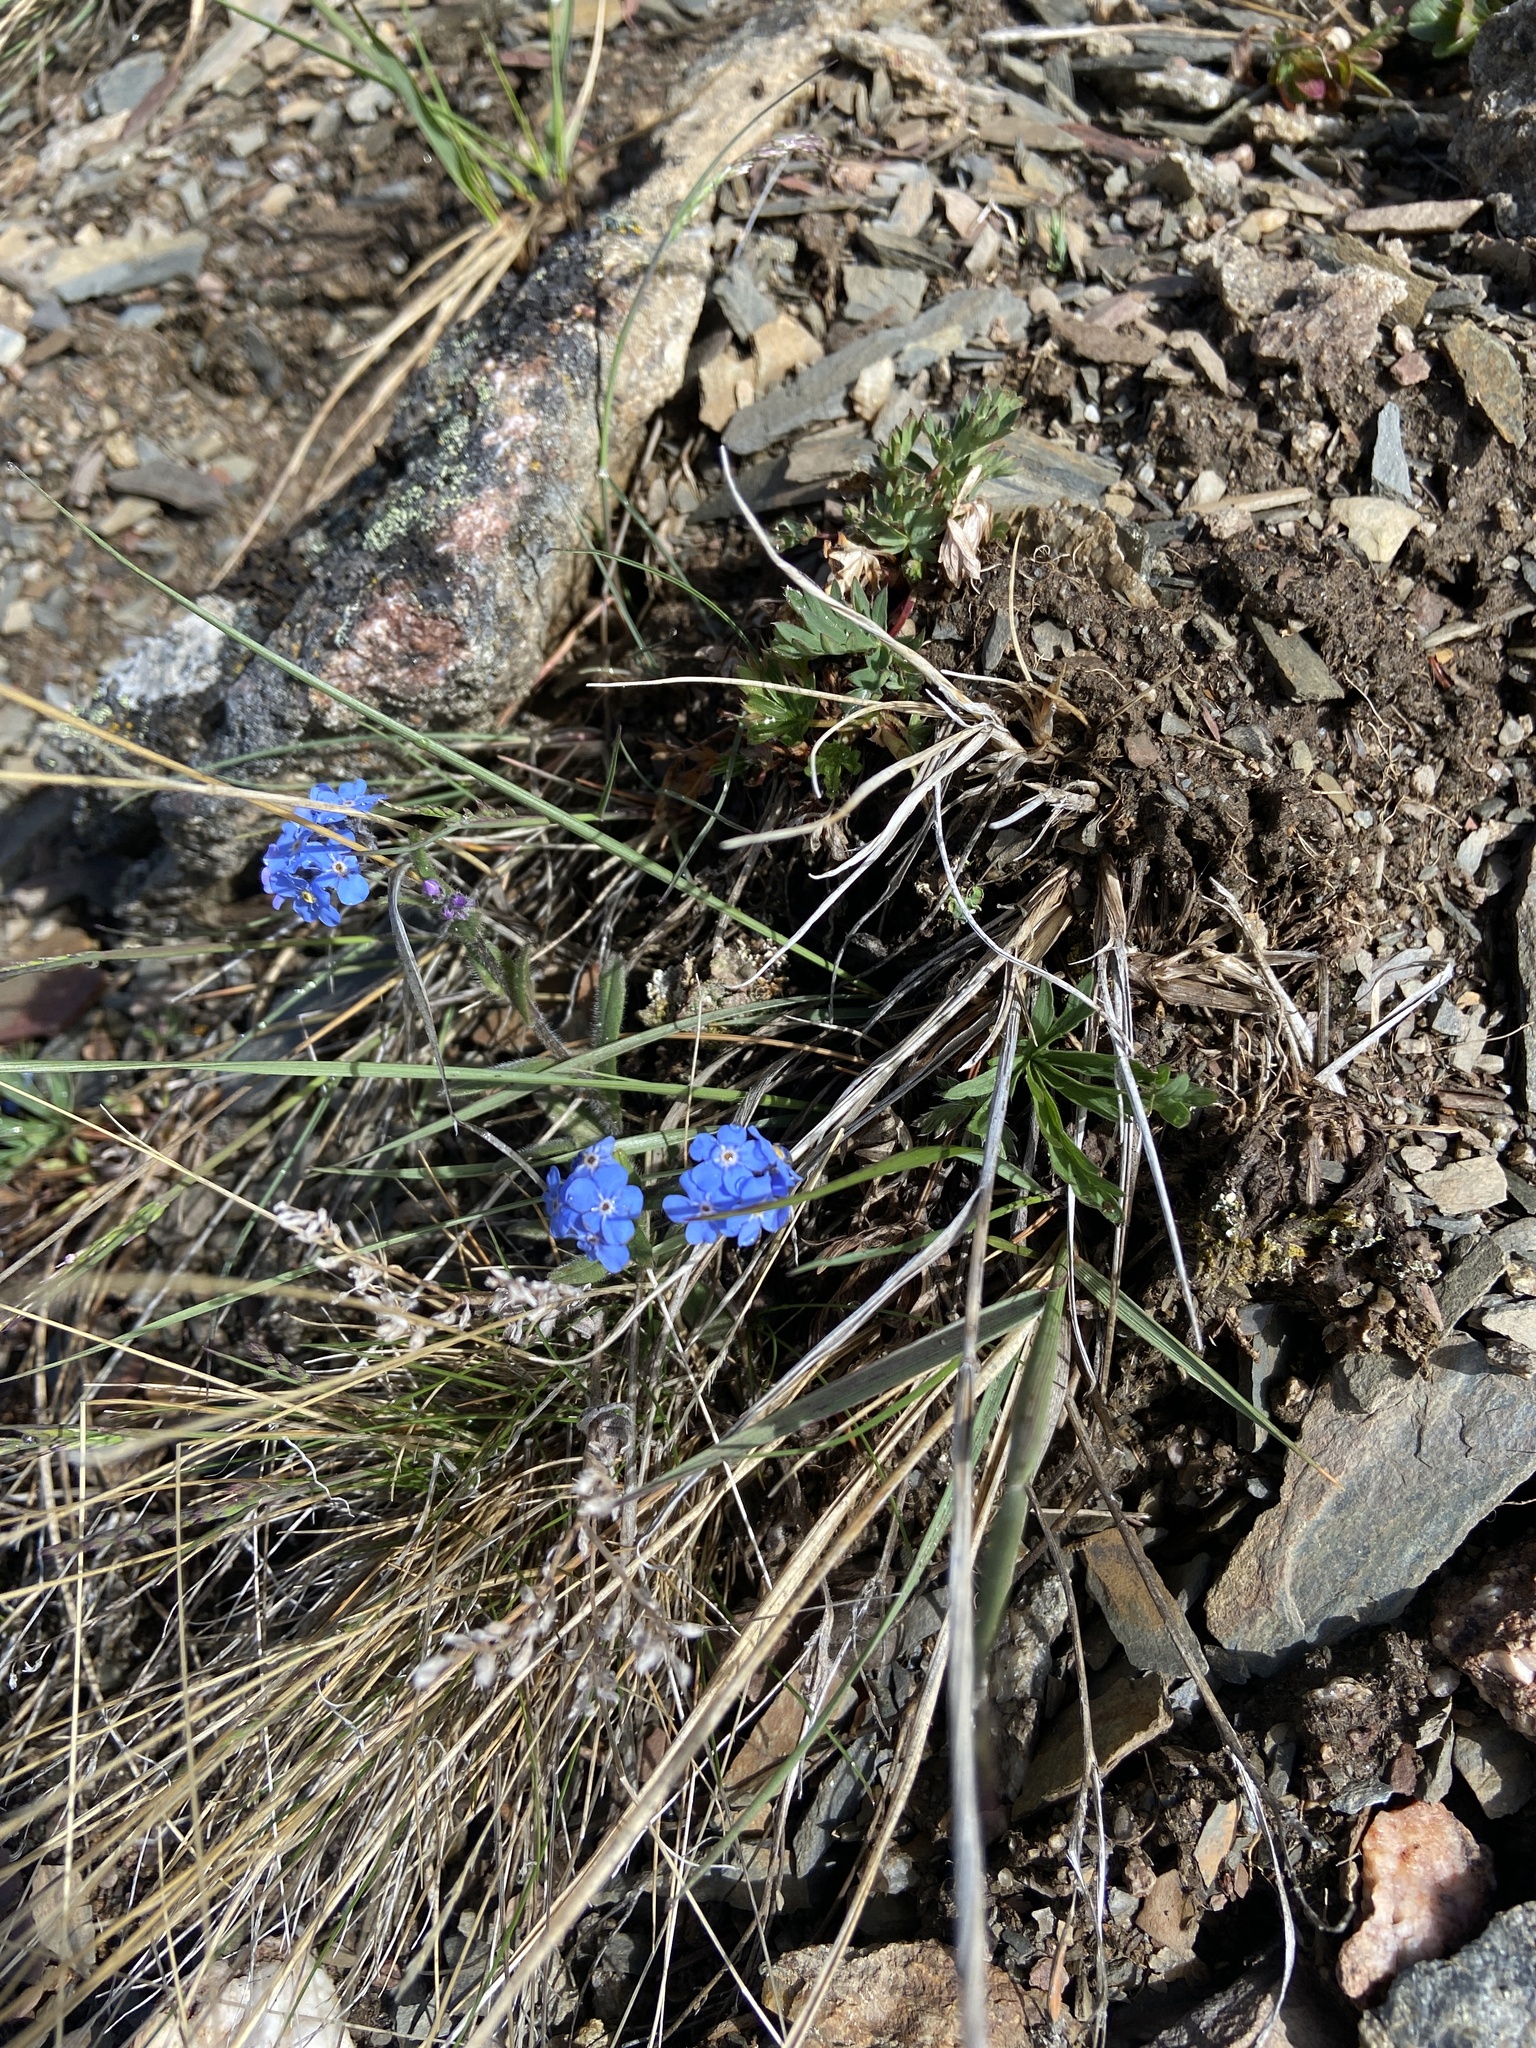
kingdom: Plantae
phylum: Tracheophyta
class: Magnoliopsida
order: Boraginales
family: Boraginaceae
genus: Myosotis
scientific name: Myosotis asiatica
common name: Asian forget-me-not
